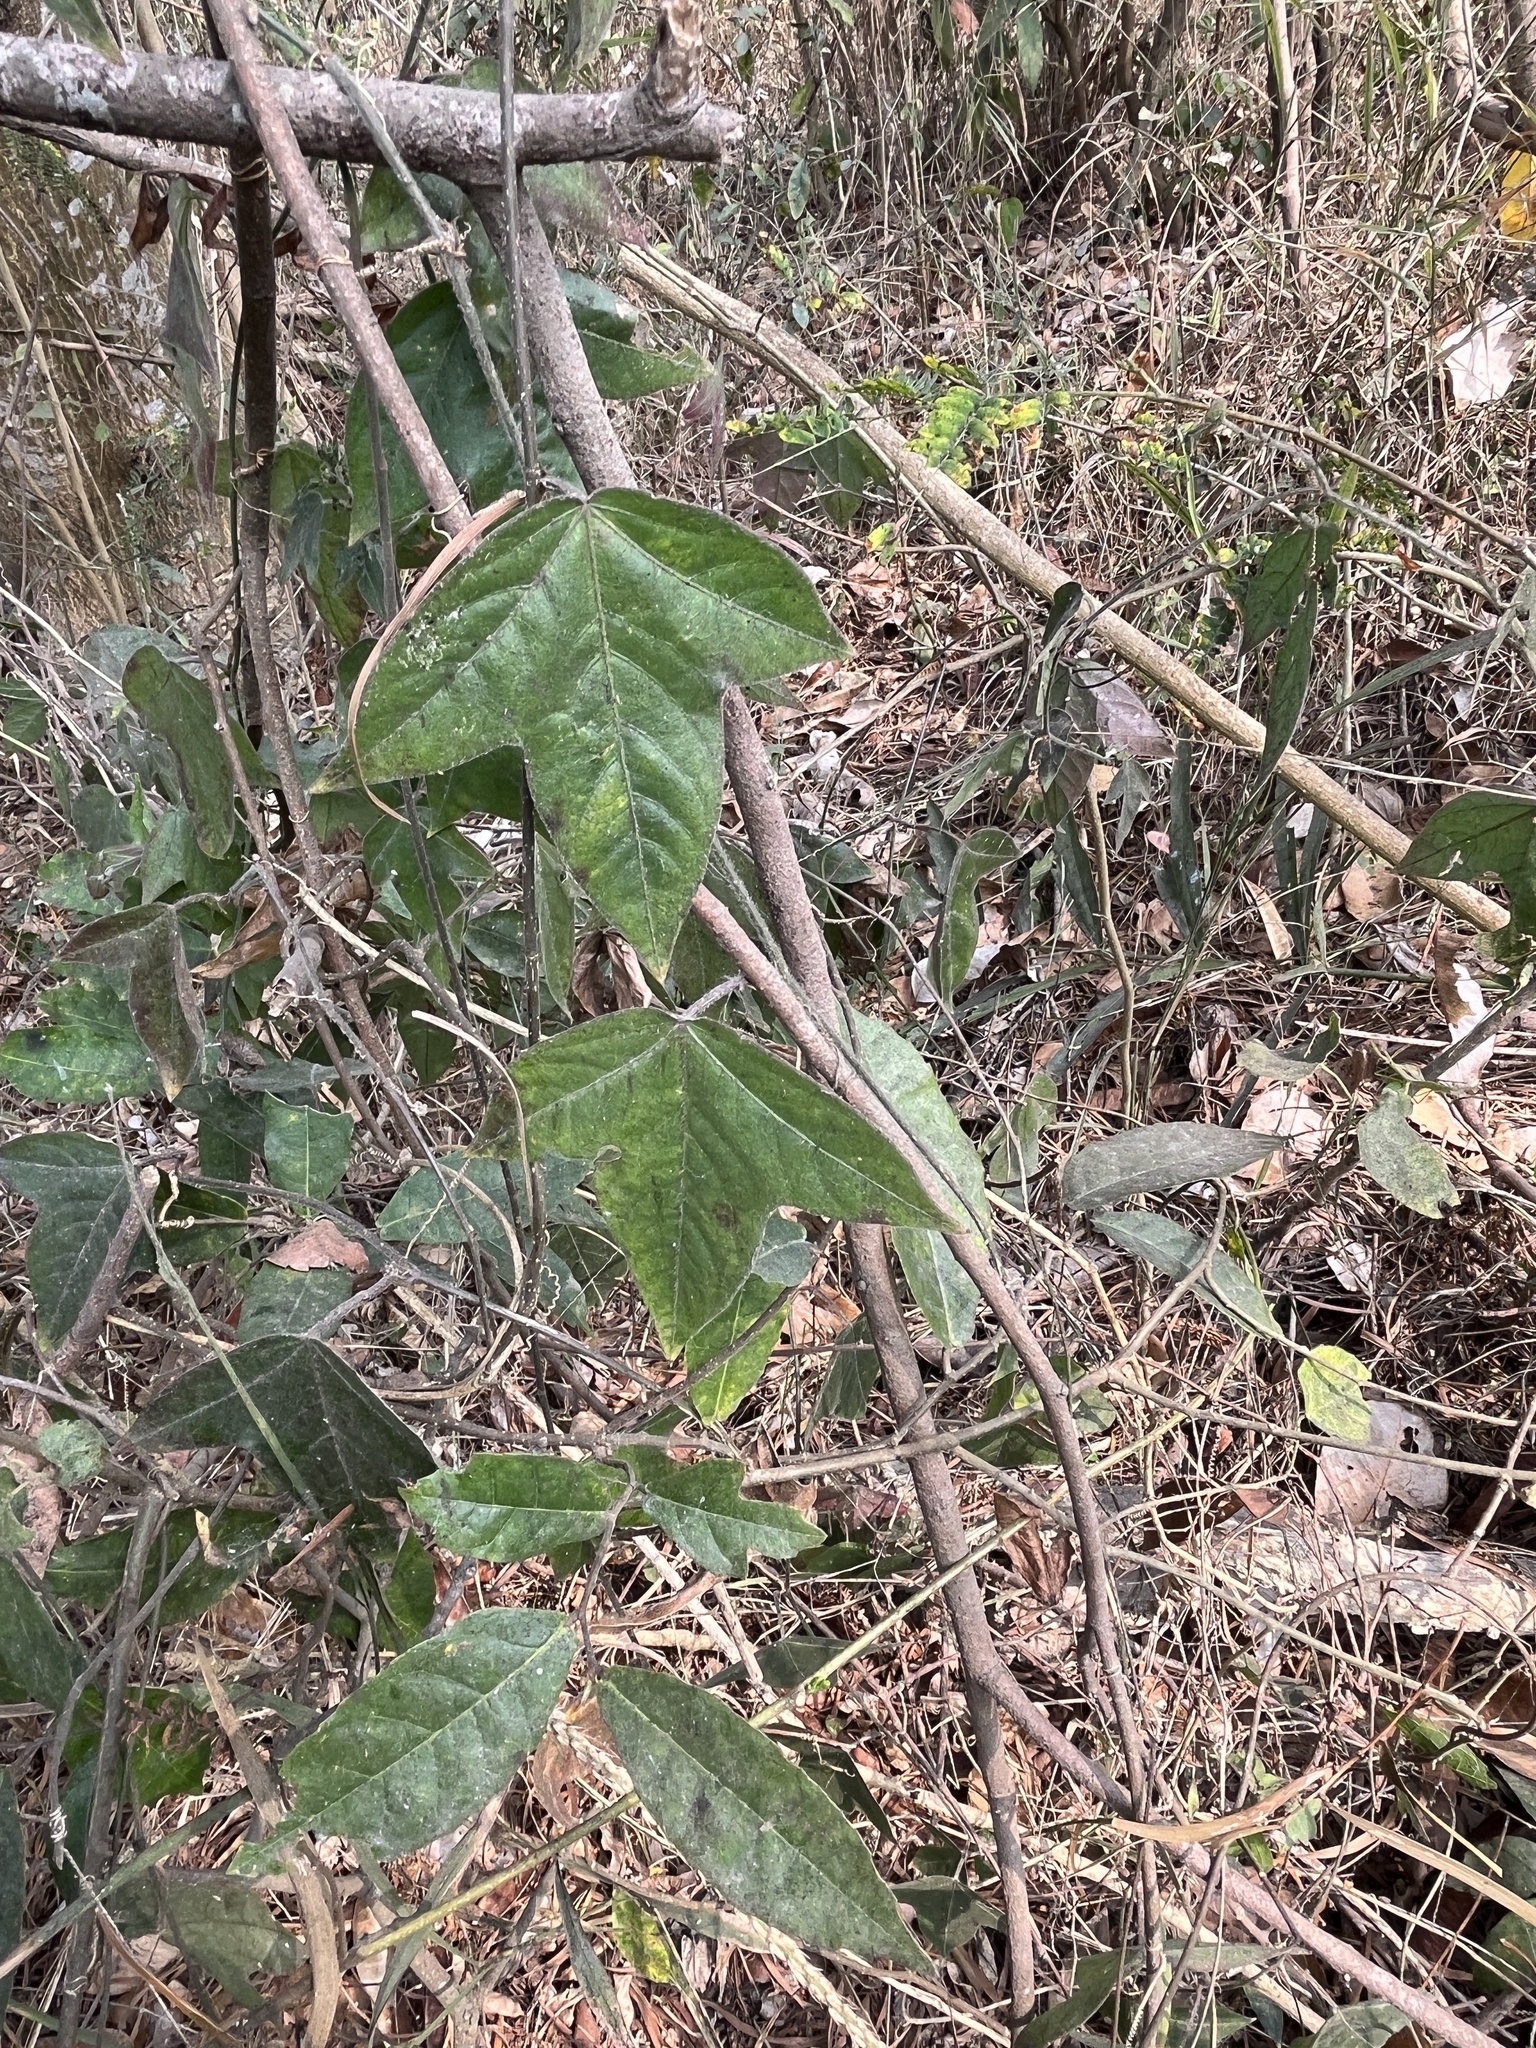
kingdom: Plantae
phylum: Tracheophyta
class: Magnoliopsida
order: Malpighiales
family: Passifloraceae
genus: Passiflora
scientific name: Passiflora suberosa
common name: Wild passionfruit
